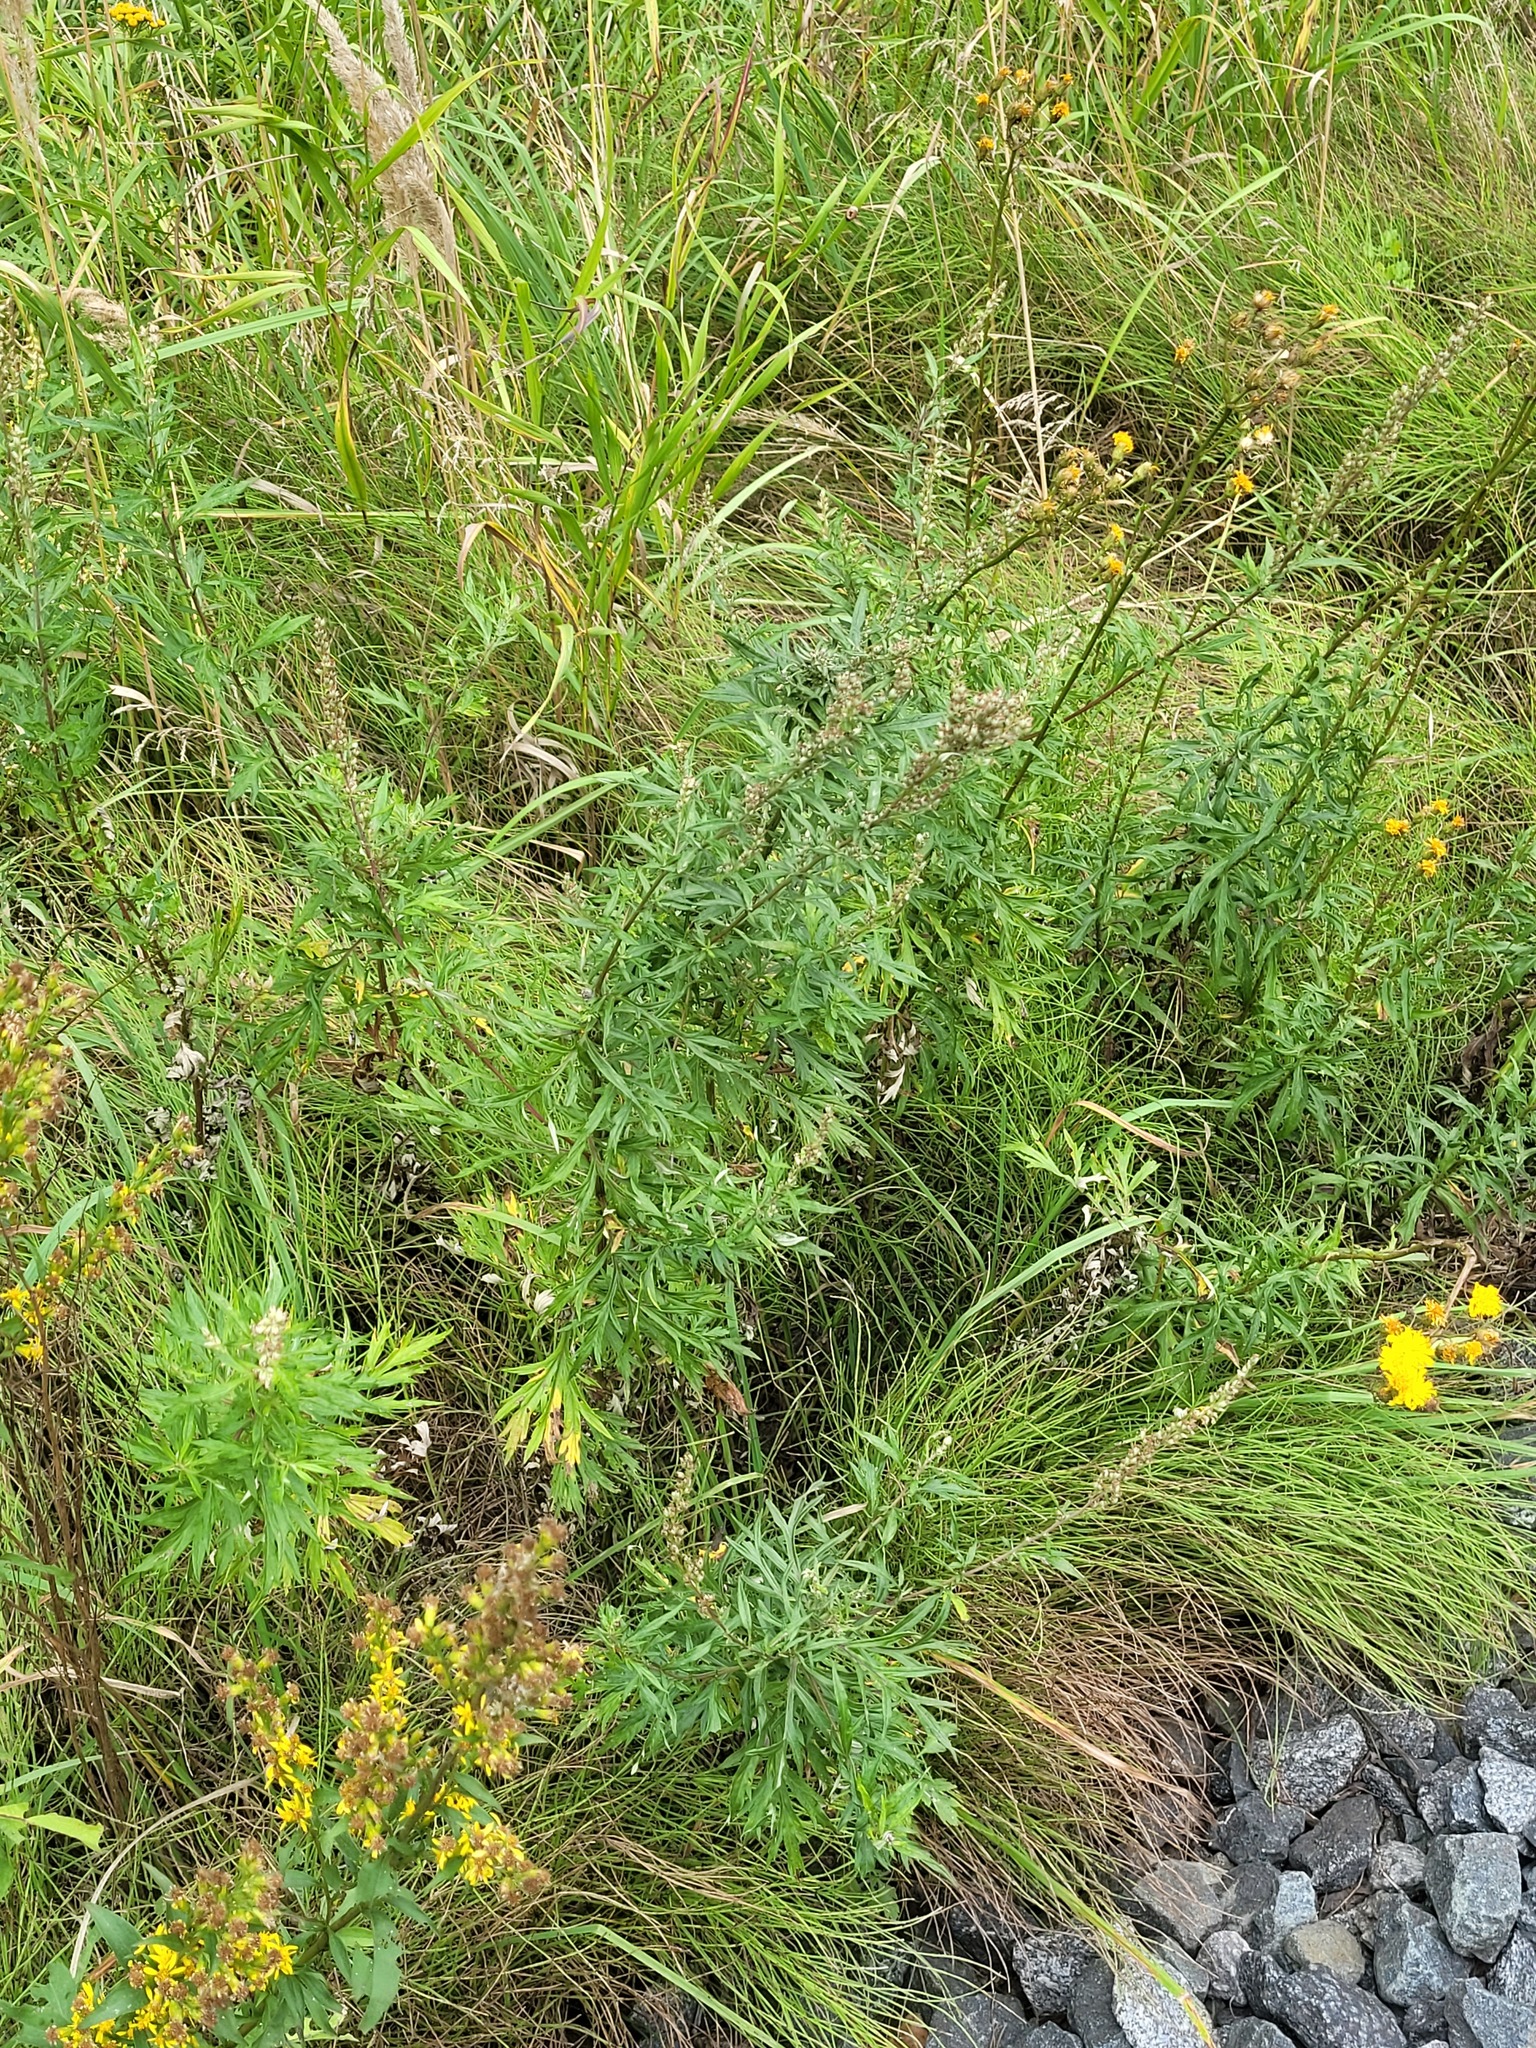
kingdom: Plantae
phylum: Tracheophyta
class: Magnoliopsida
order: Asterales
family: Asteraceae
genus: Artemisia
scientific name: Artemisia vulgaris
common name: Mugwort
